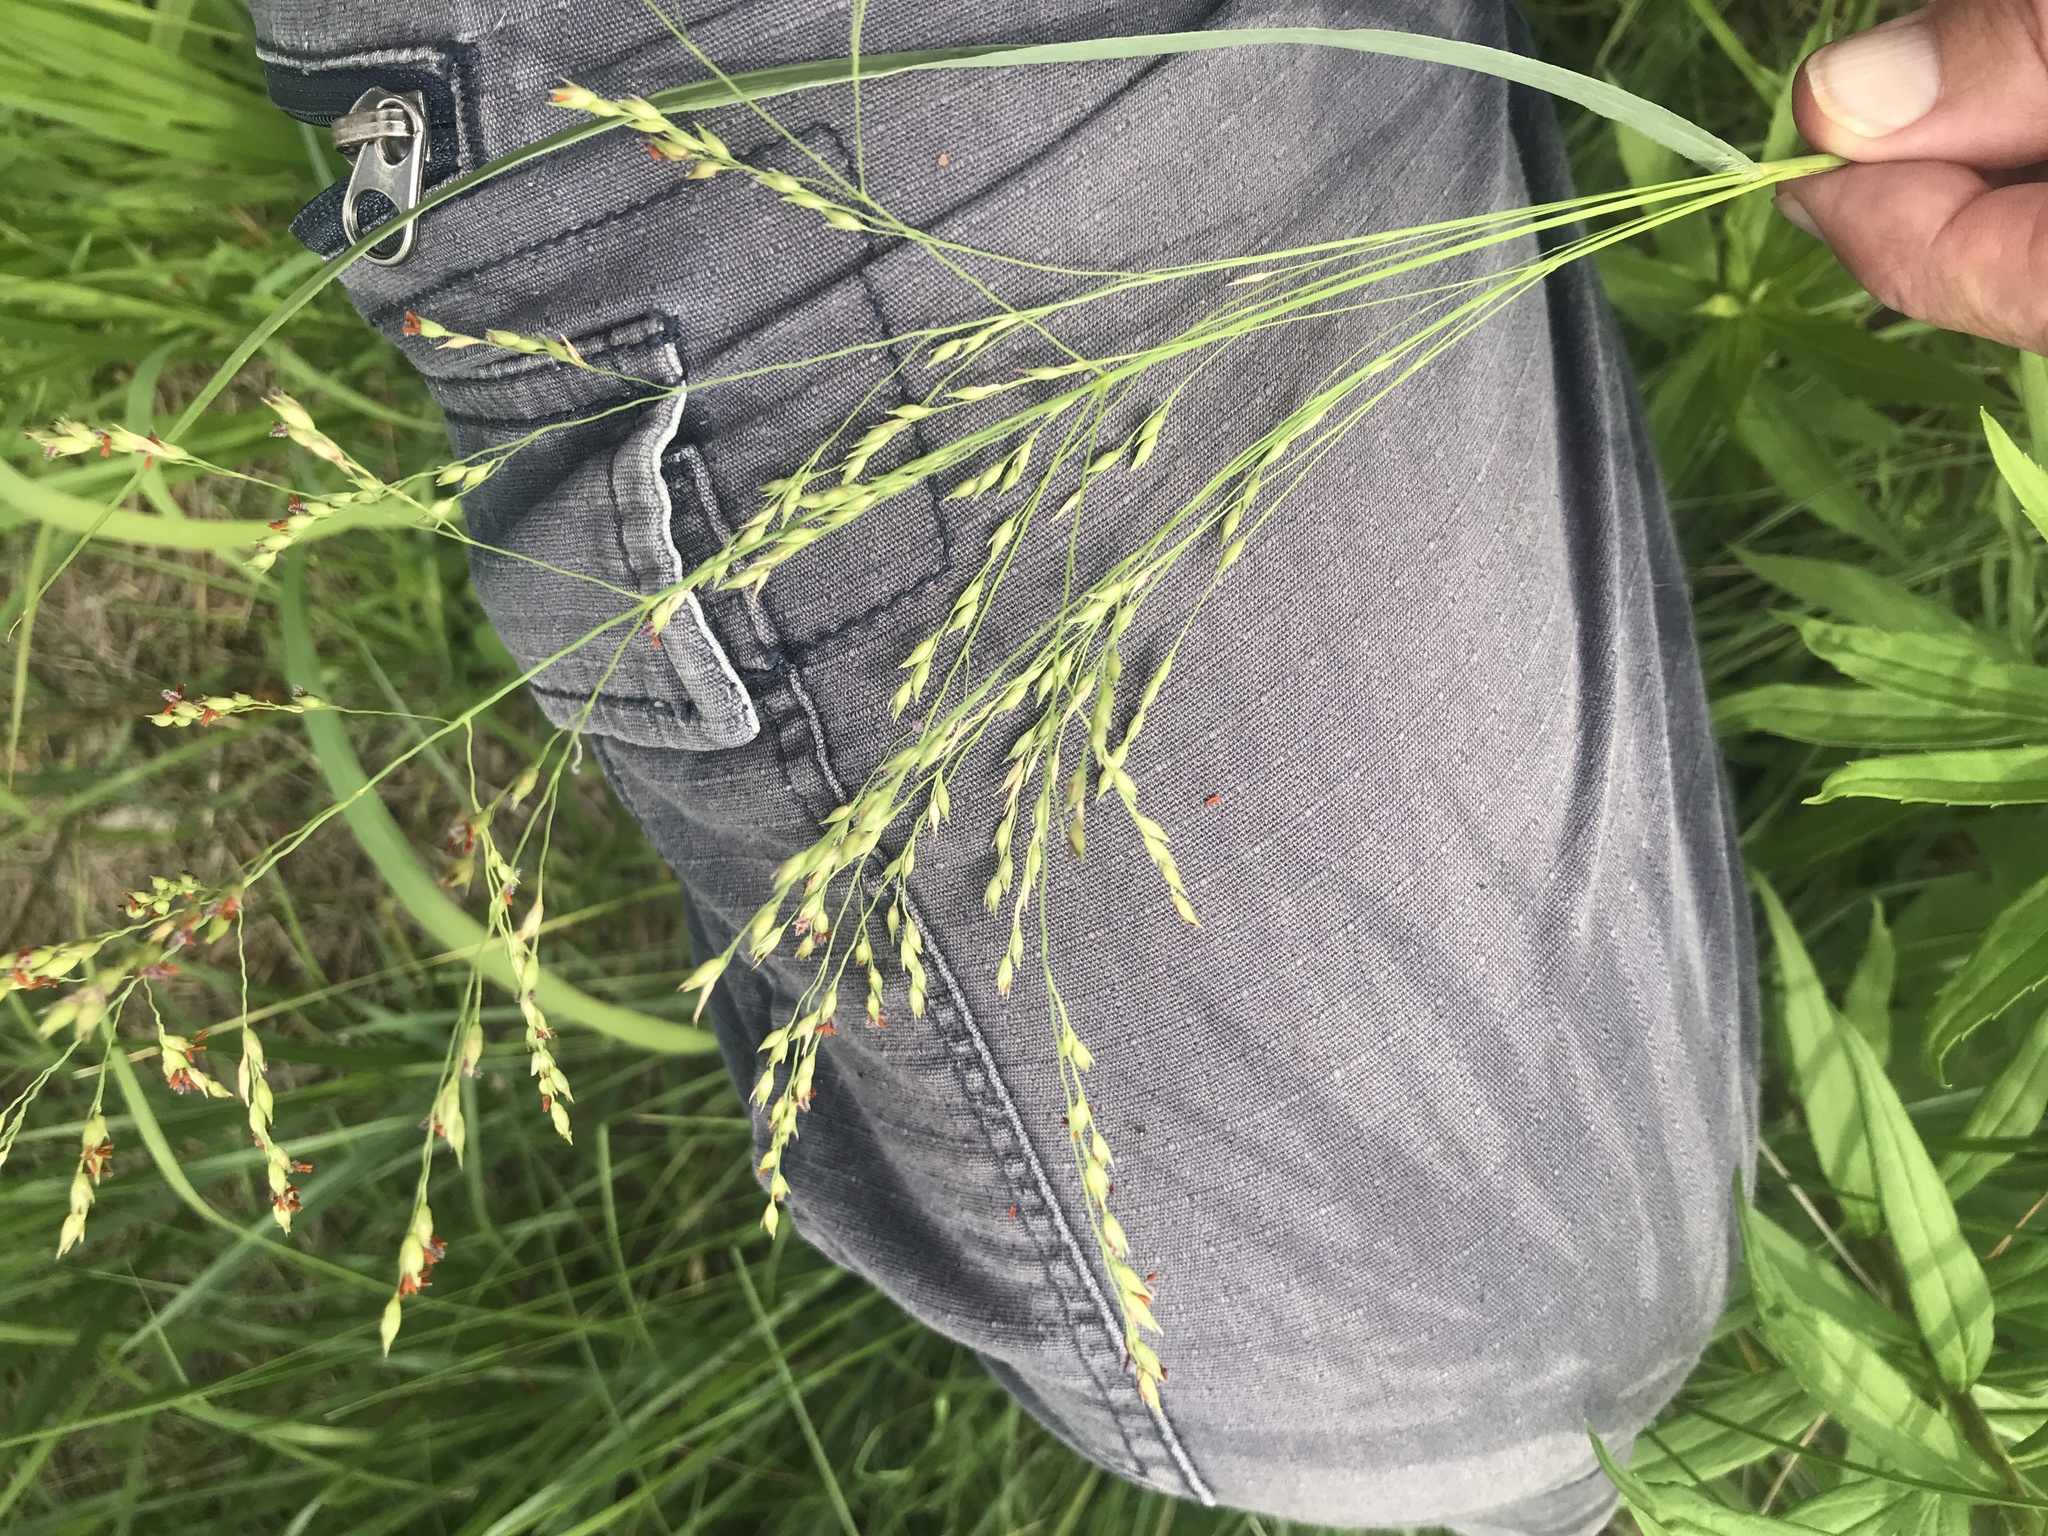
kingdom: Plantae
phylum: Tracheophyta
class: Liliopsida
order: Poales
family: Poaceae
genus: Panicum
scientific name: Panicum virgatum
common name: Switchgrass
